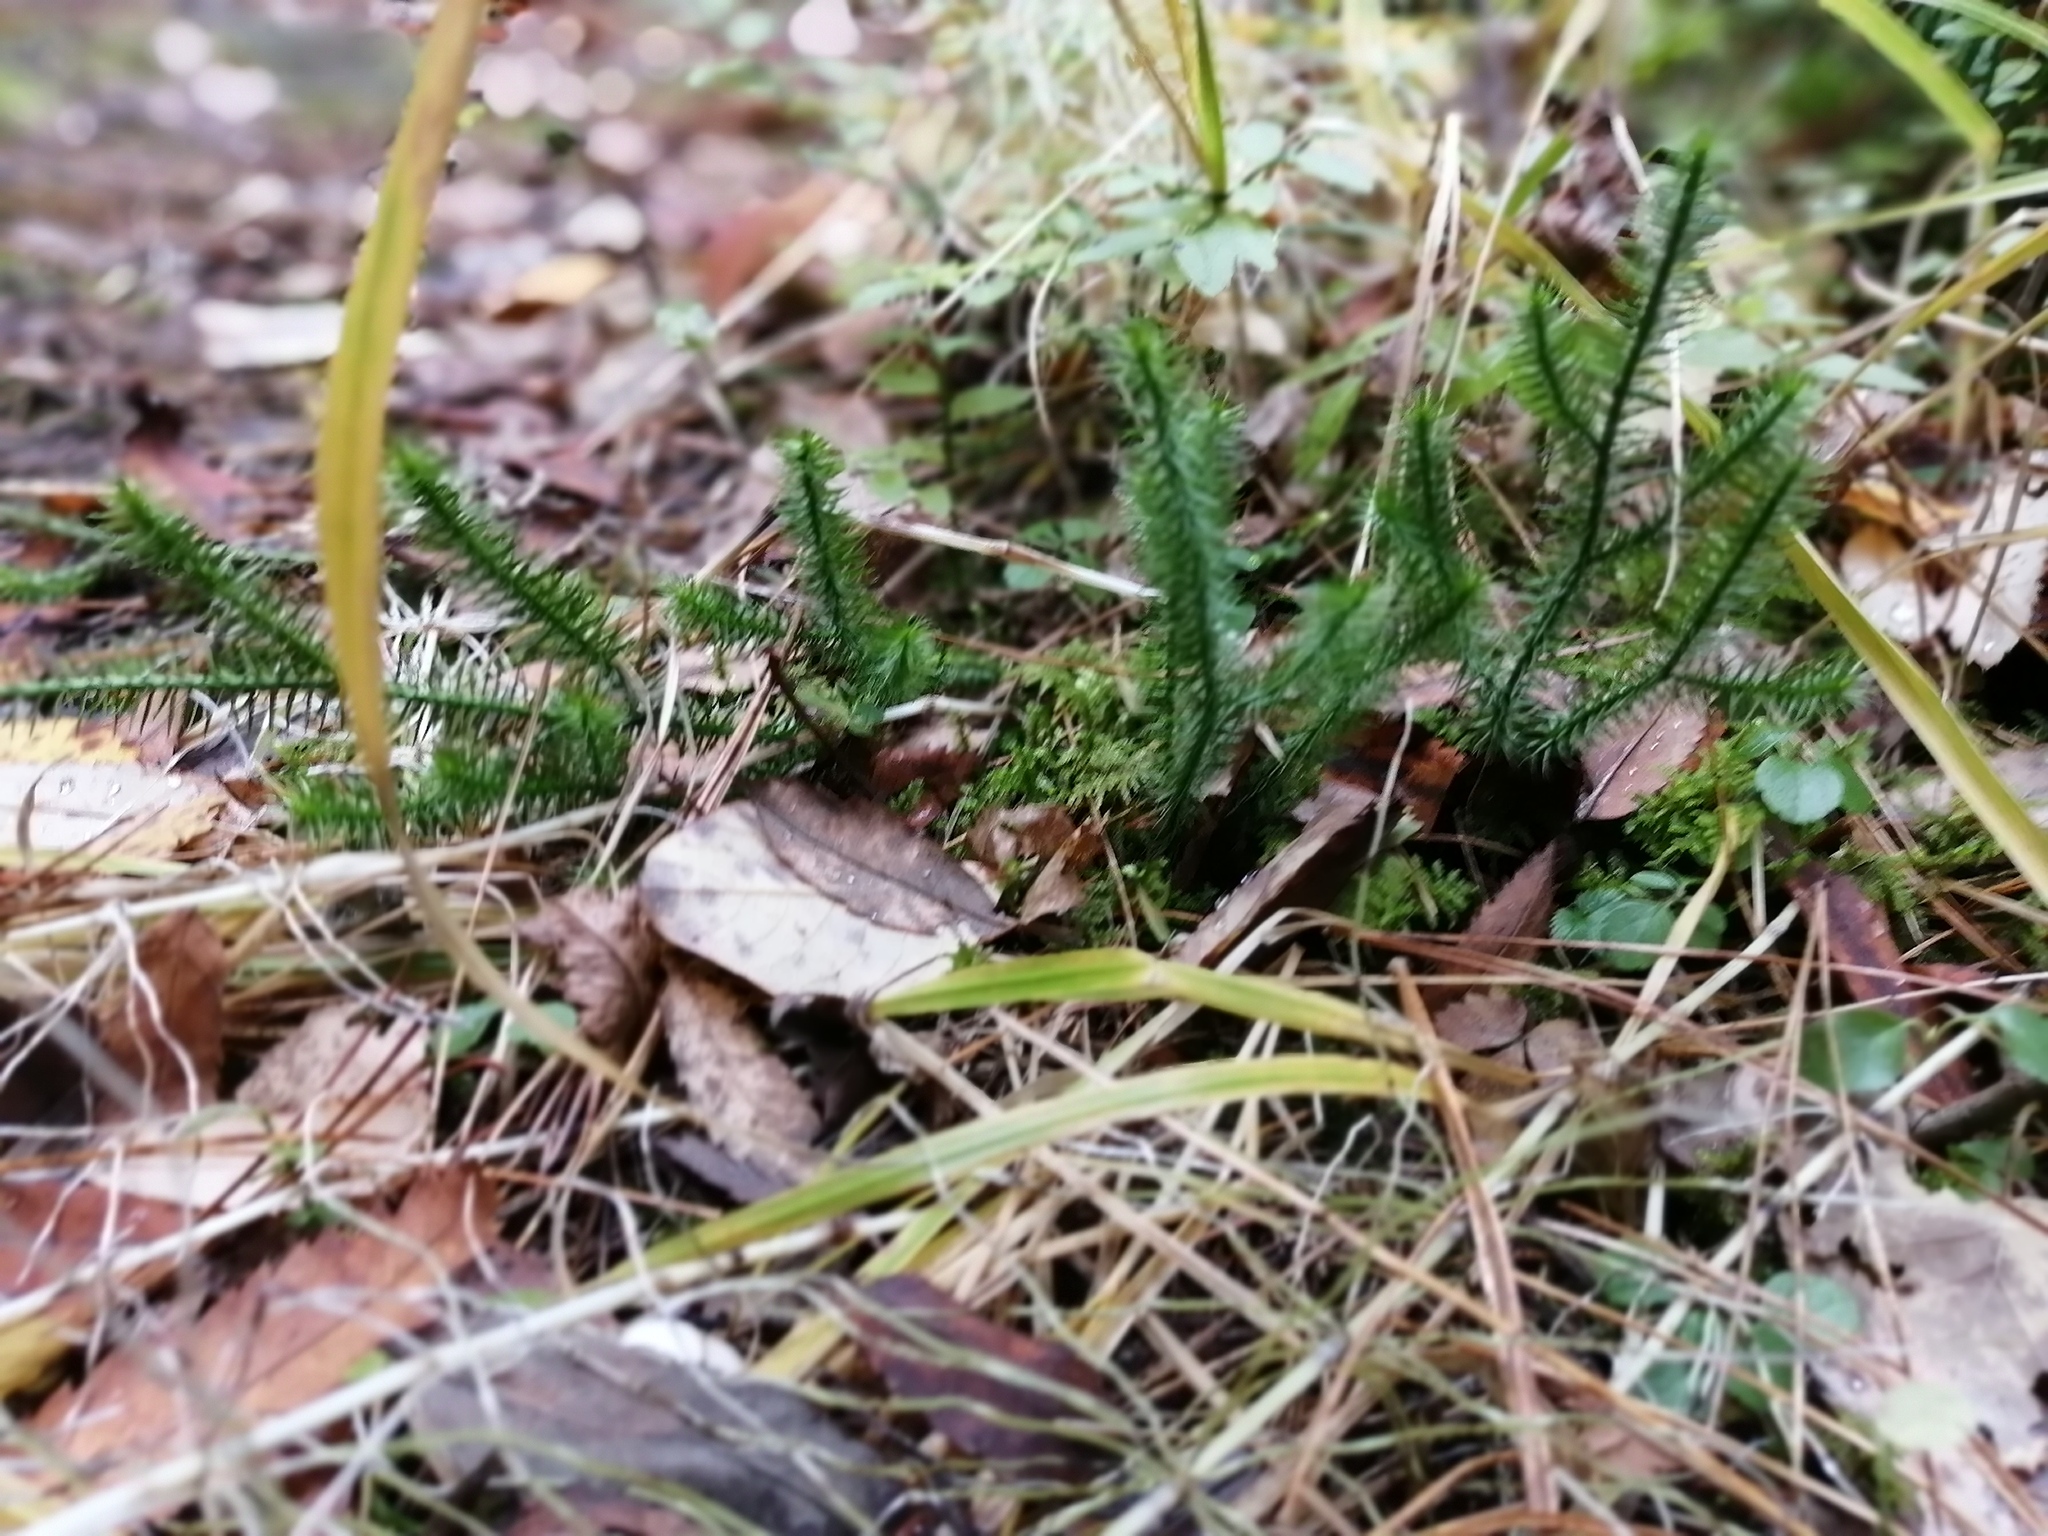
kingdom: Plantae
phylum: Tracheophyta
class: Lycopodiopsida
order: Lycopodiales
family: Lycopodiaceae
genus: Lycopodium
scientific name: Lycopodium clavatum
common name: Stag's-horn clubmoss
